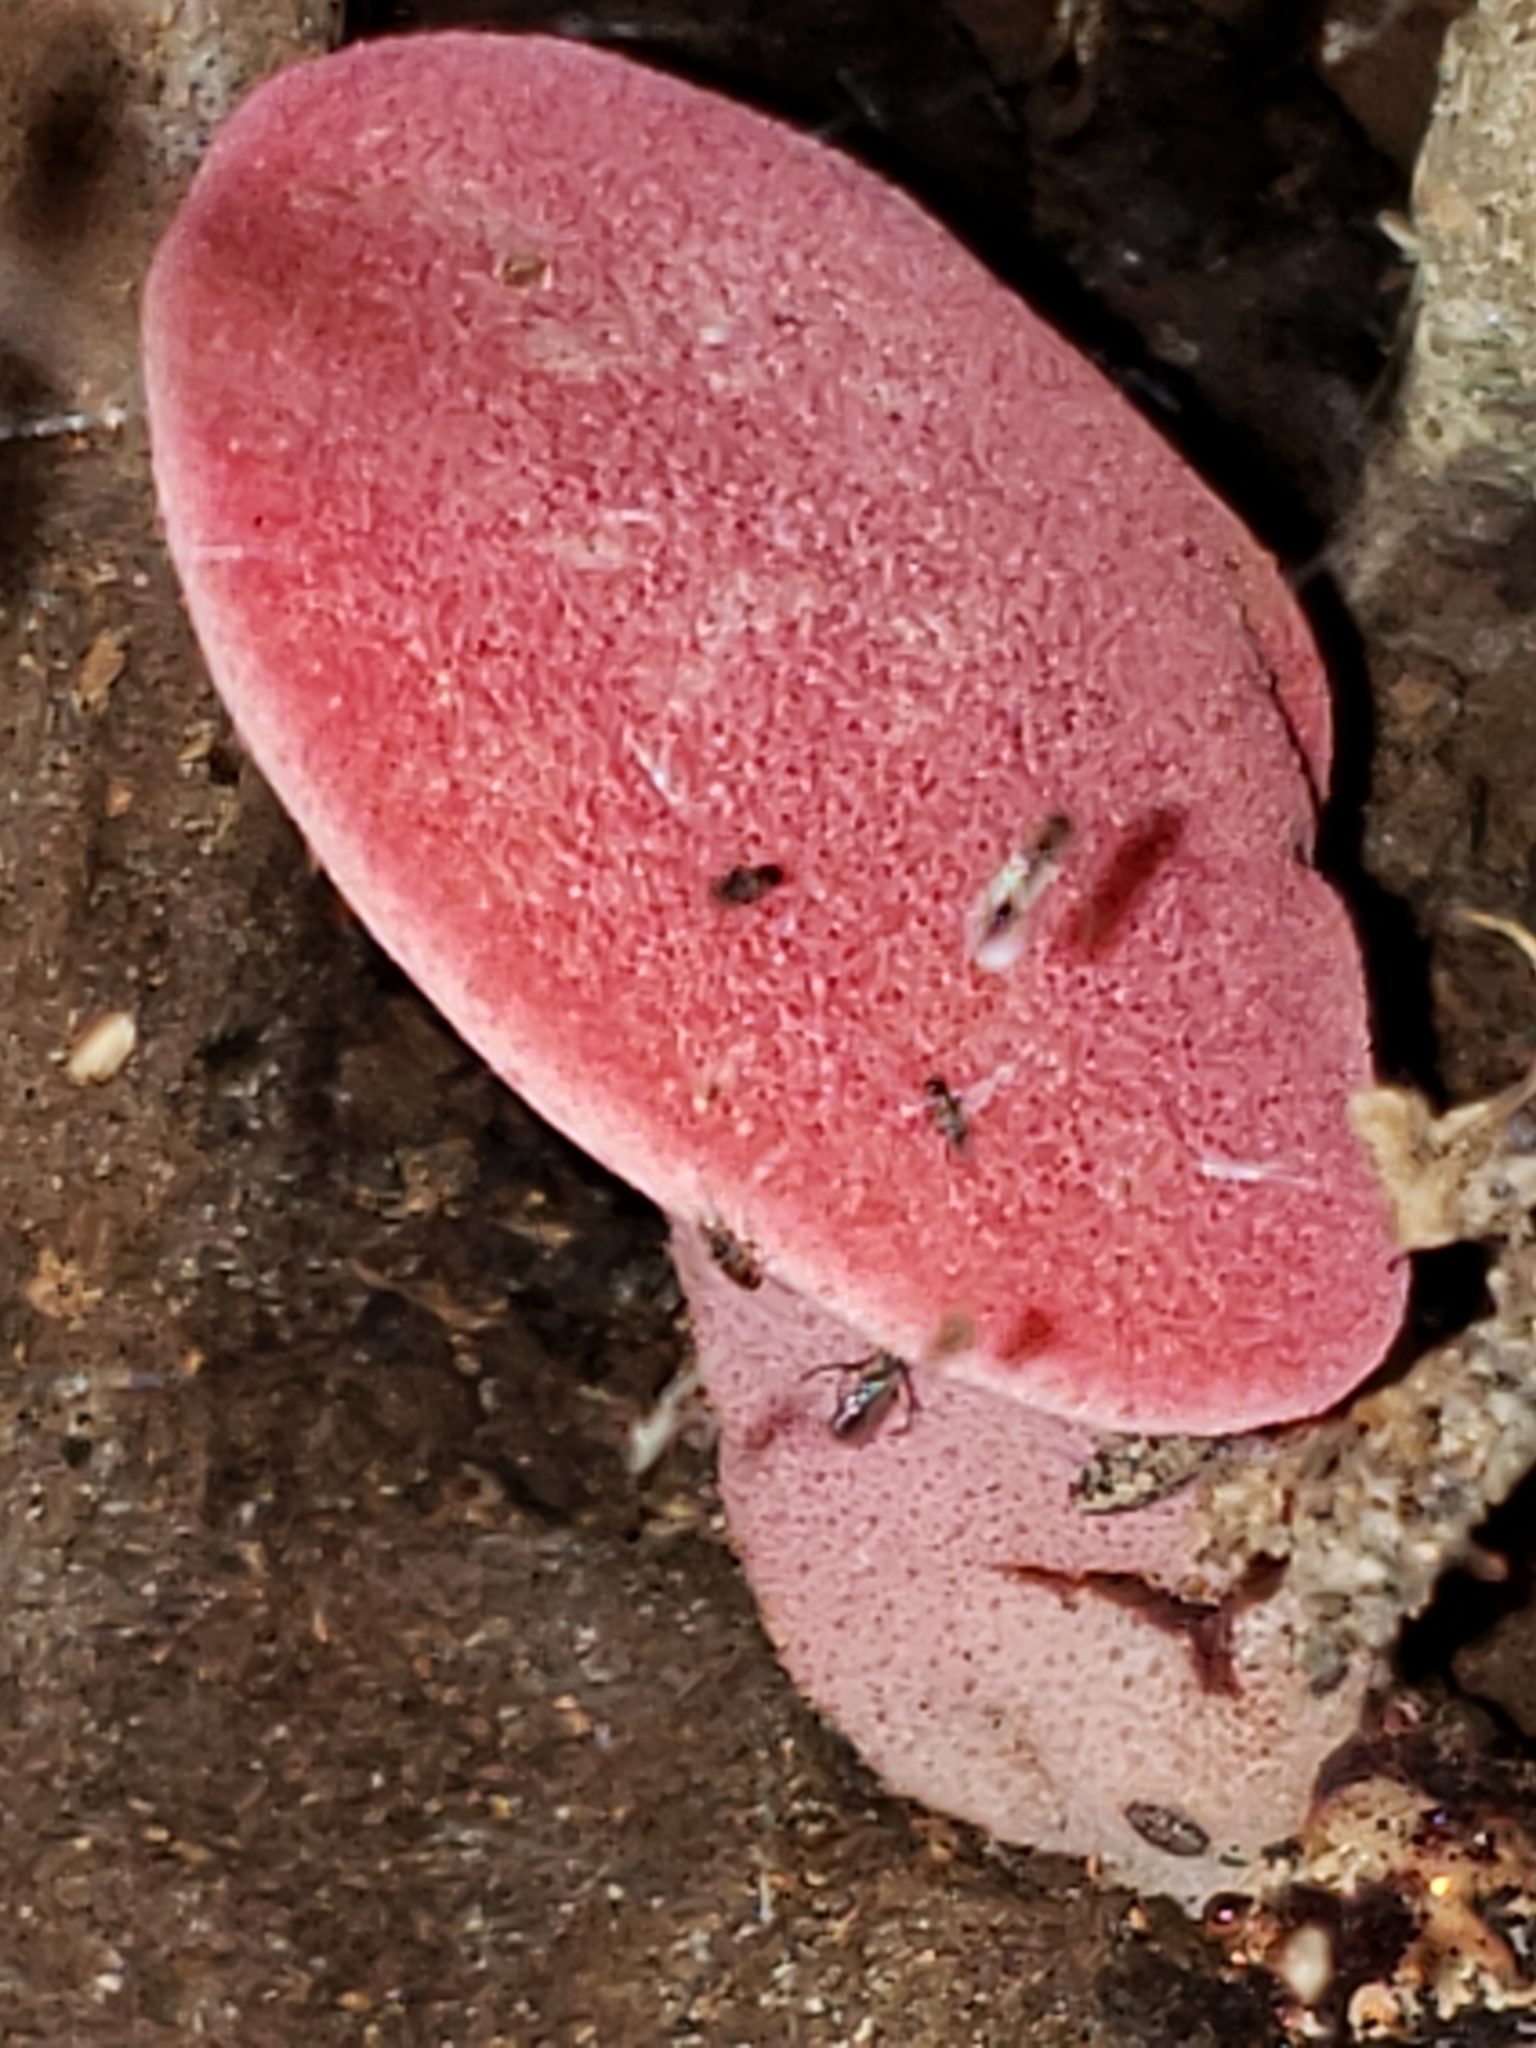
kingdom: Fungi
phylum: Basidiomycota
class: Agaricomycetes
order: Agaricales
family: Fistulinaceae
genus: Fistulina
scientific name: Fistulina hepatica
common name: Beef-steak fungus
